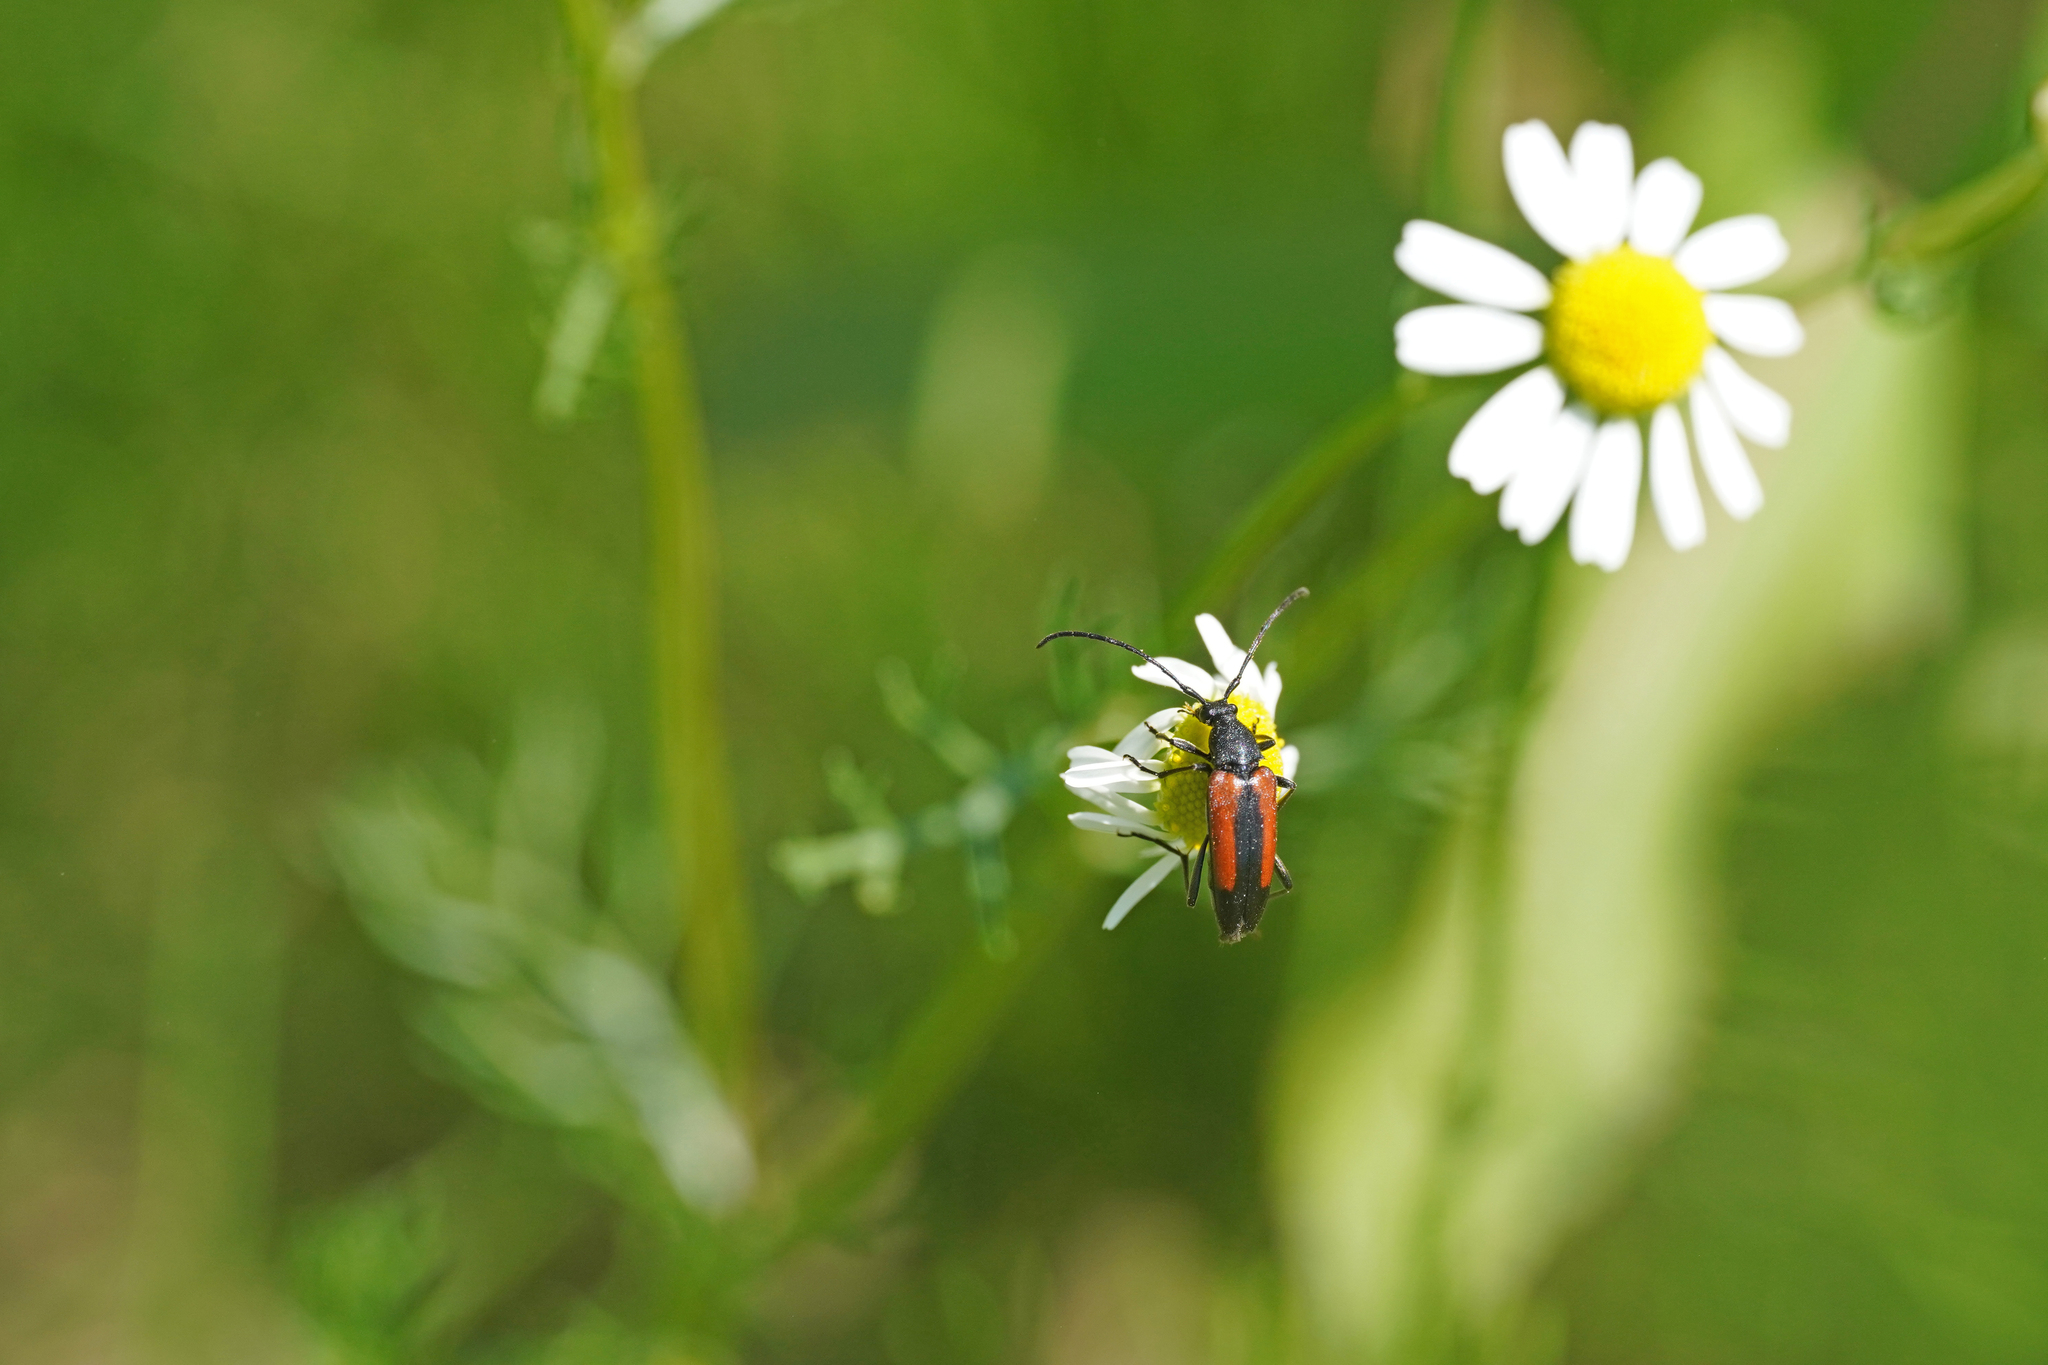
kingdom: Animalia
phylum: Arthropoda
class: Insecta
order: Coleoptera
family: Cerambycidae
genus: Stenurella
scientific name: Stenurella melanura
